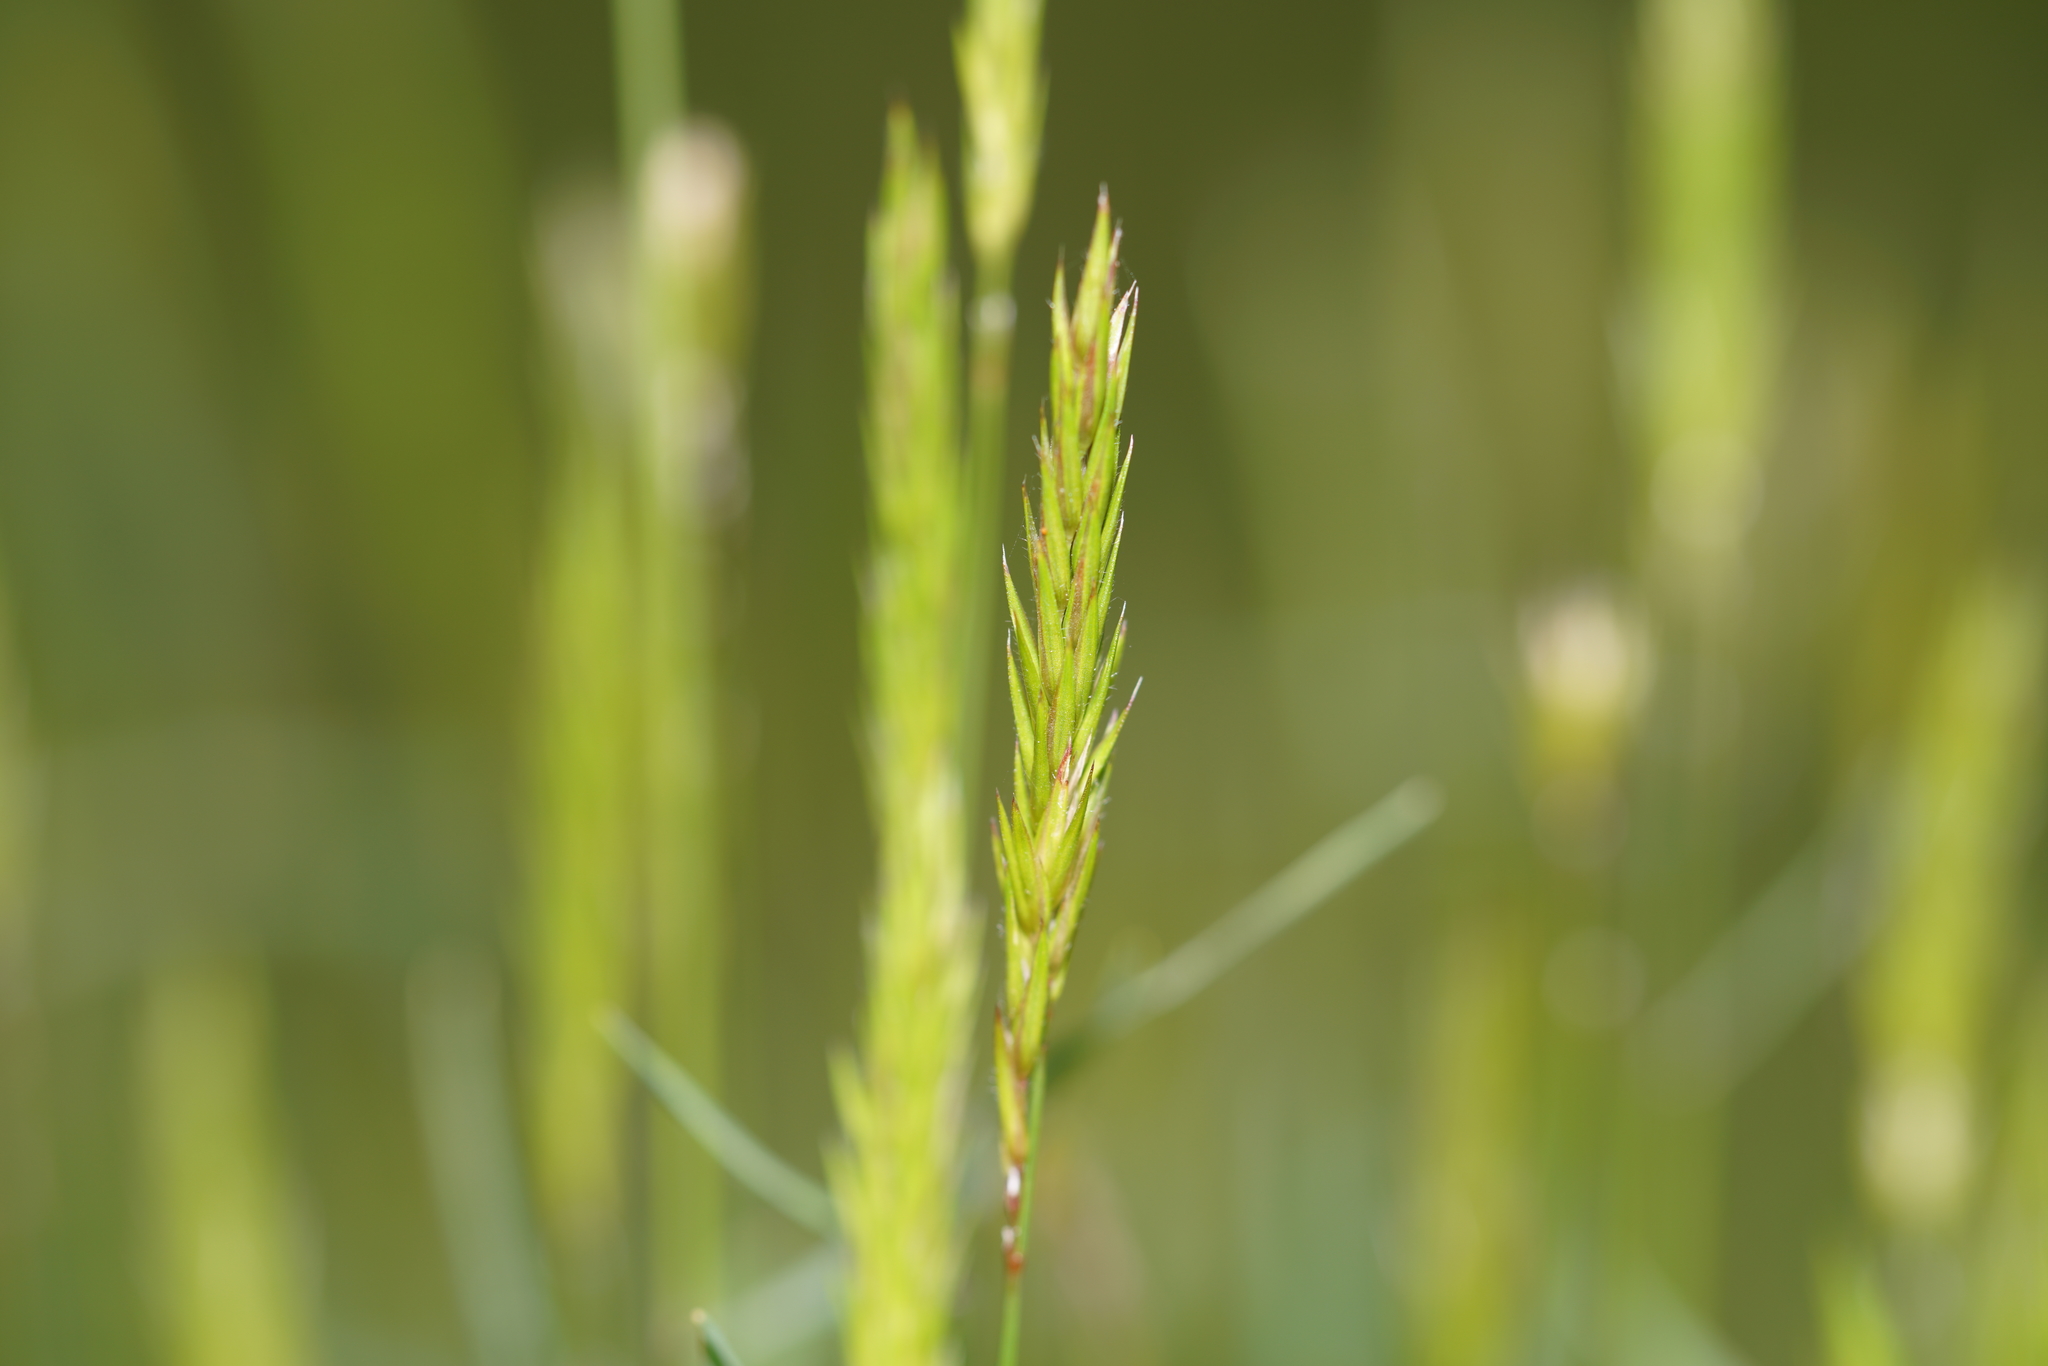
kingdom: Plantae
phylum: Tracheophyta
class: Liliopsida
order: Poales
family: Poaceae
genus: Anthoxanthum
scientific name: Anthoxanthum odoratum
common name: Sweet vernalgrass
